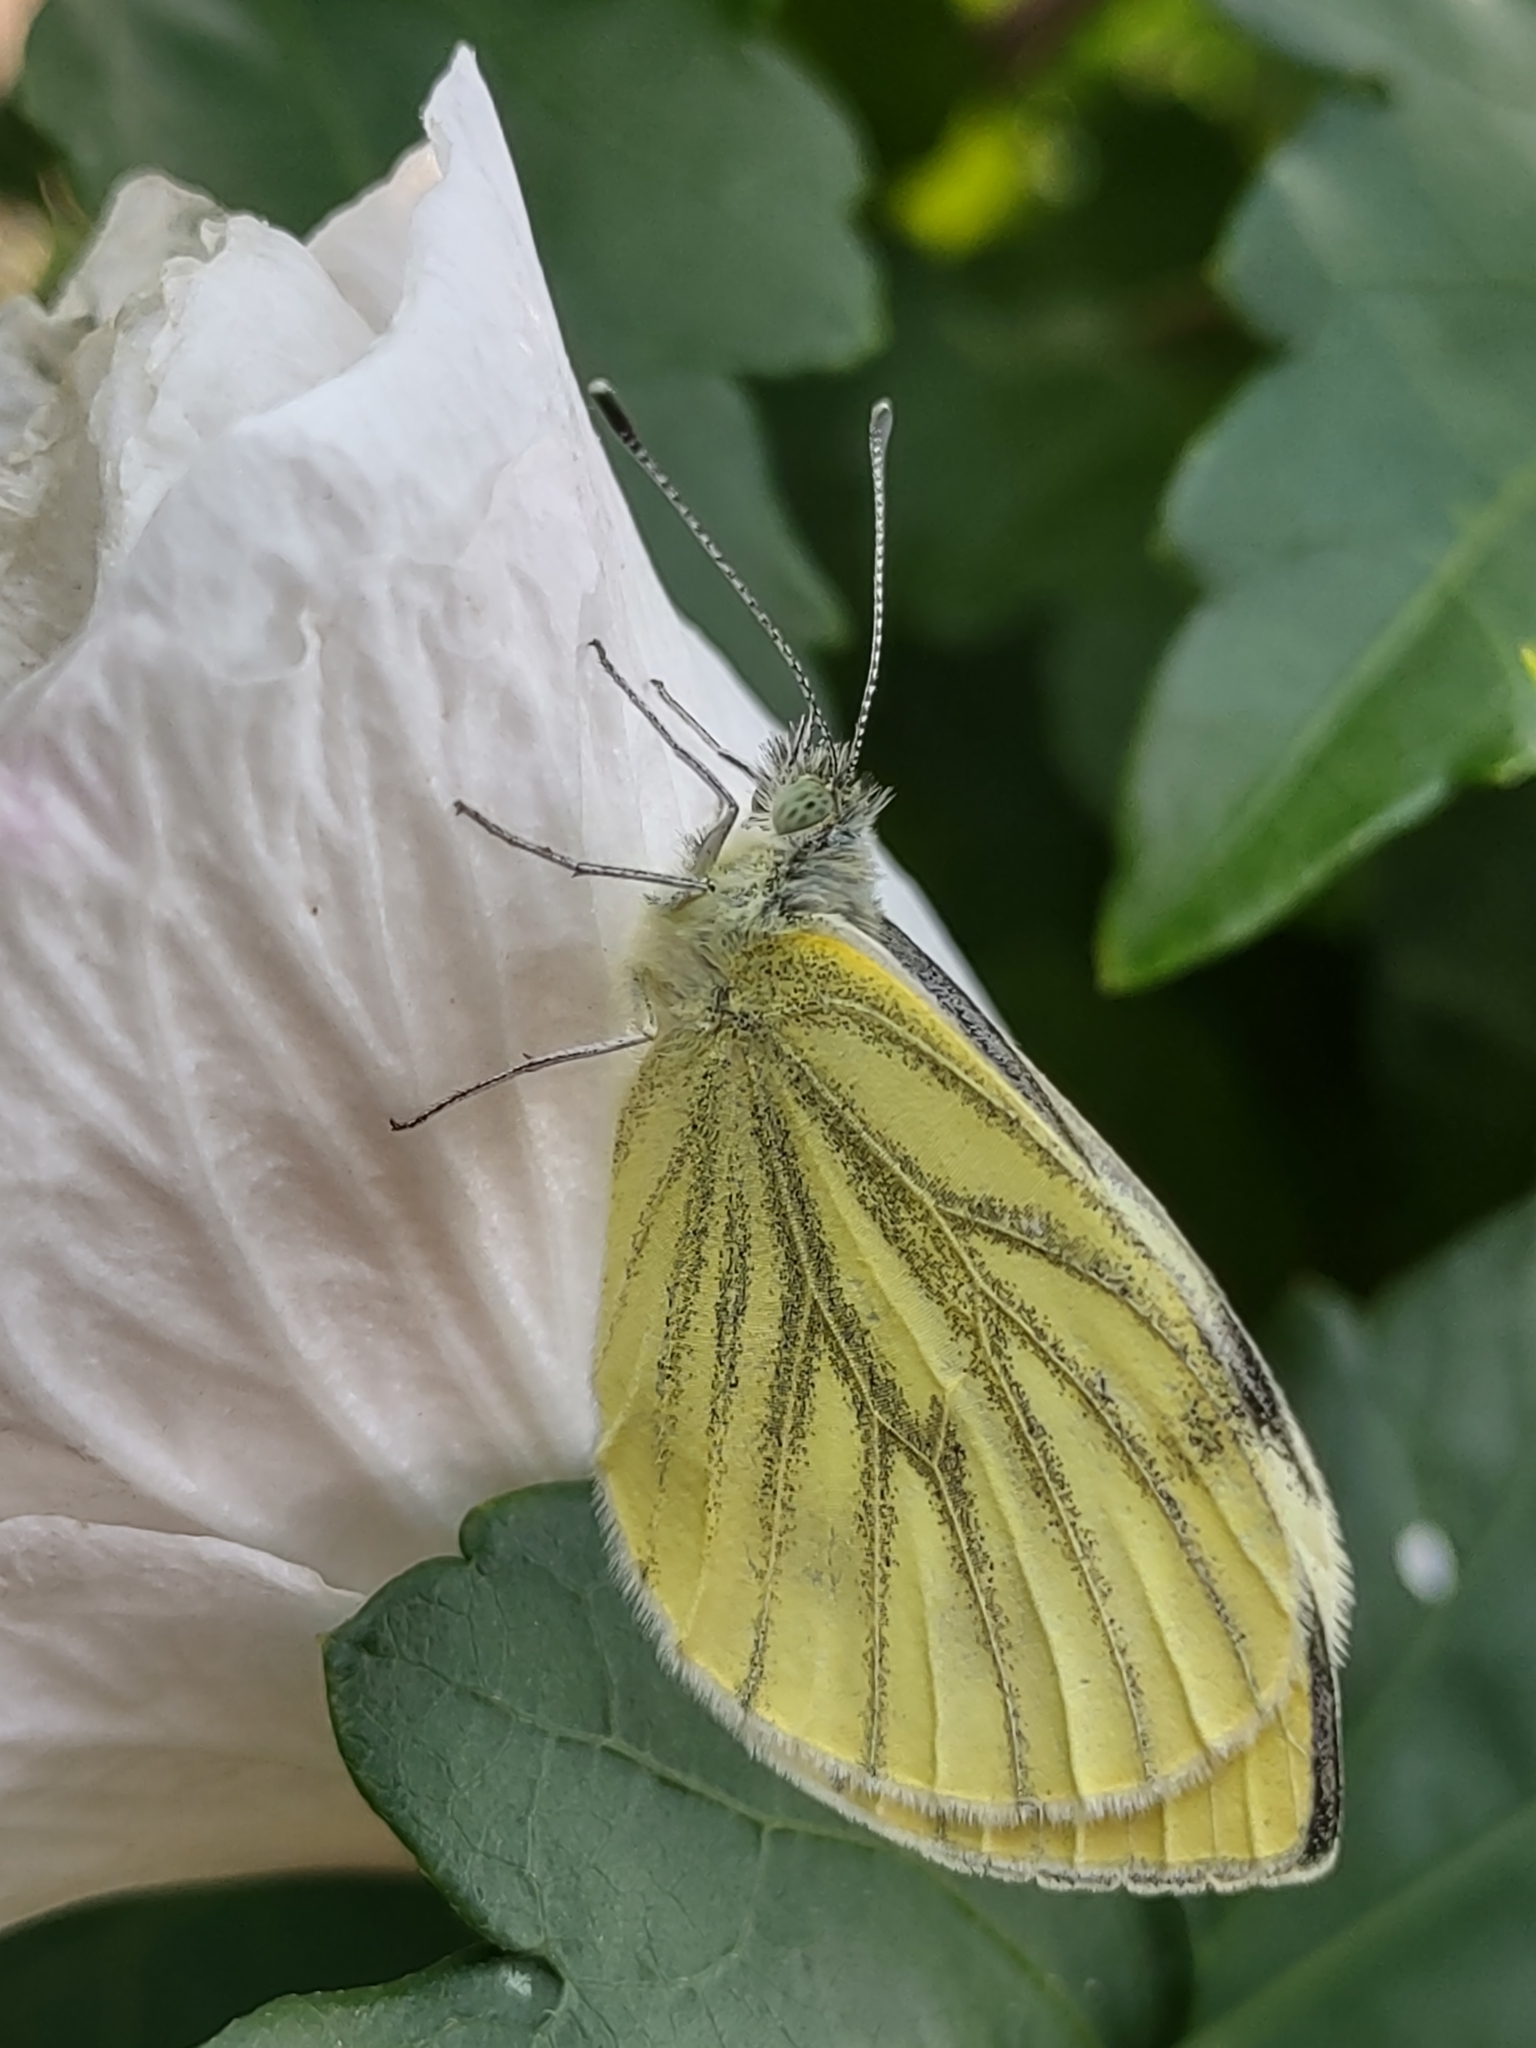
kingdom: Animalia
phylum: Arthropoda
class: Insecta
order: Lepidoptera
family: Pieridae
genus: Pieris
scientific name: Pieris napi
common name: Green-veined white
